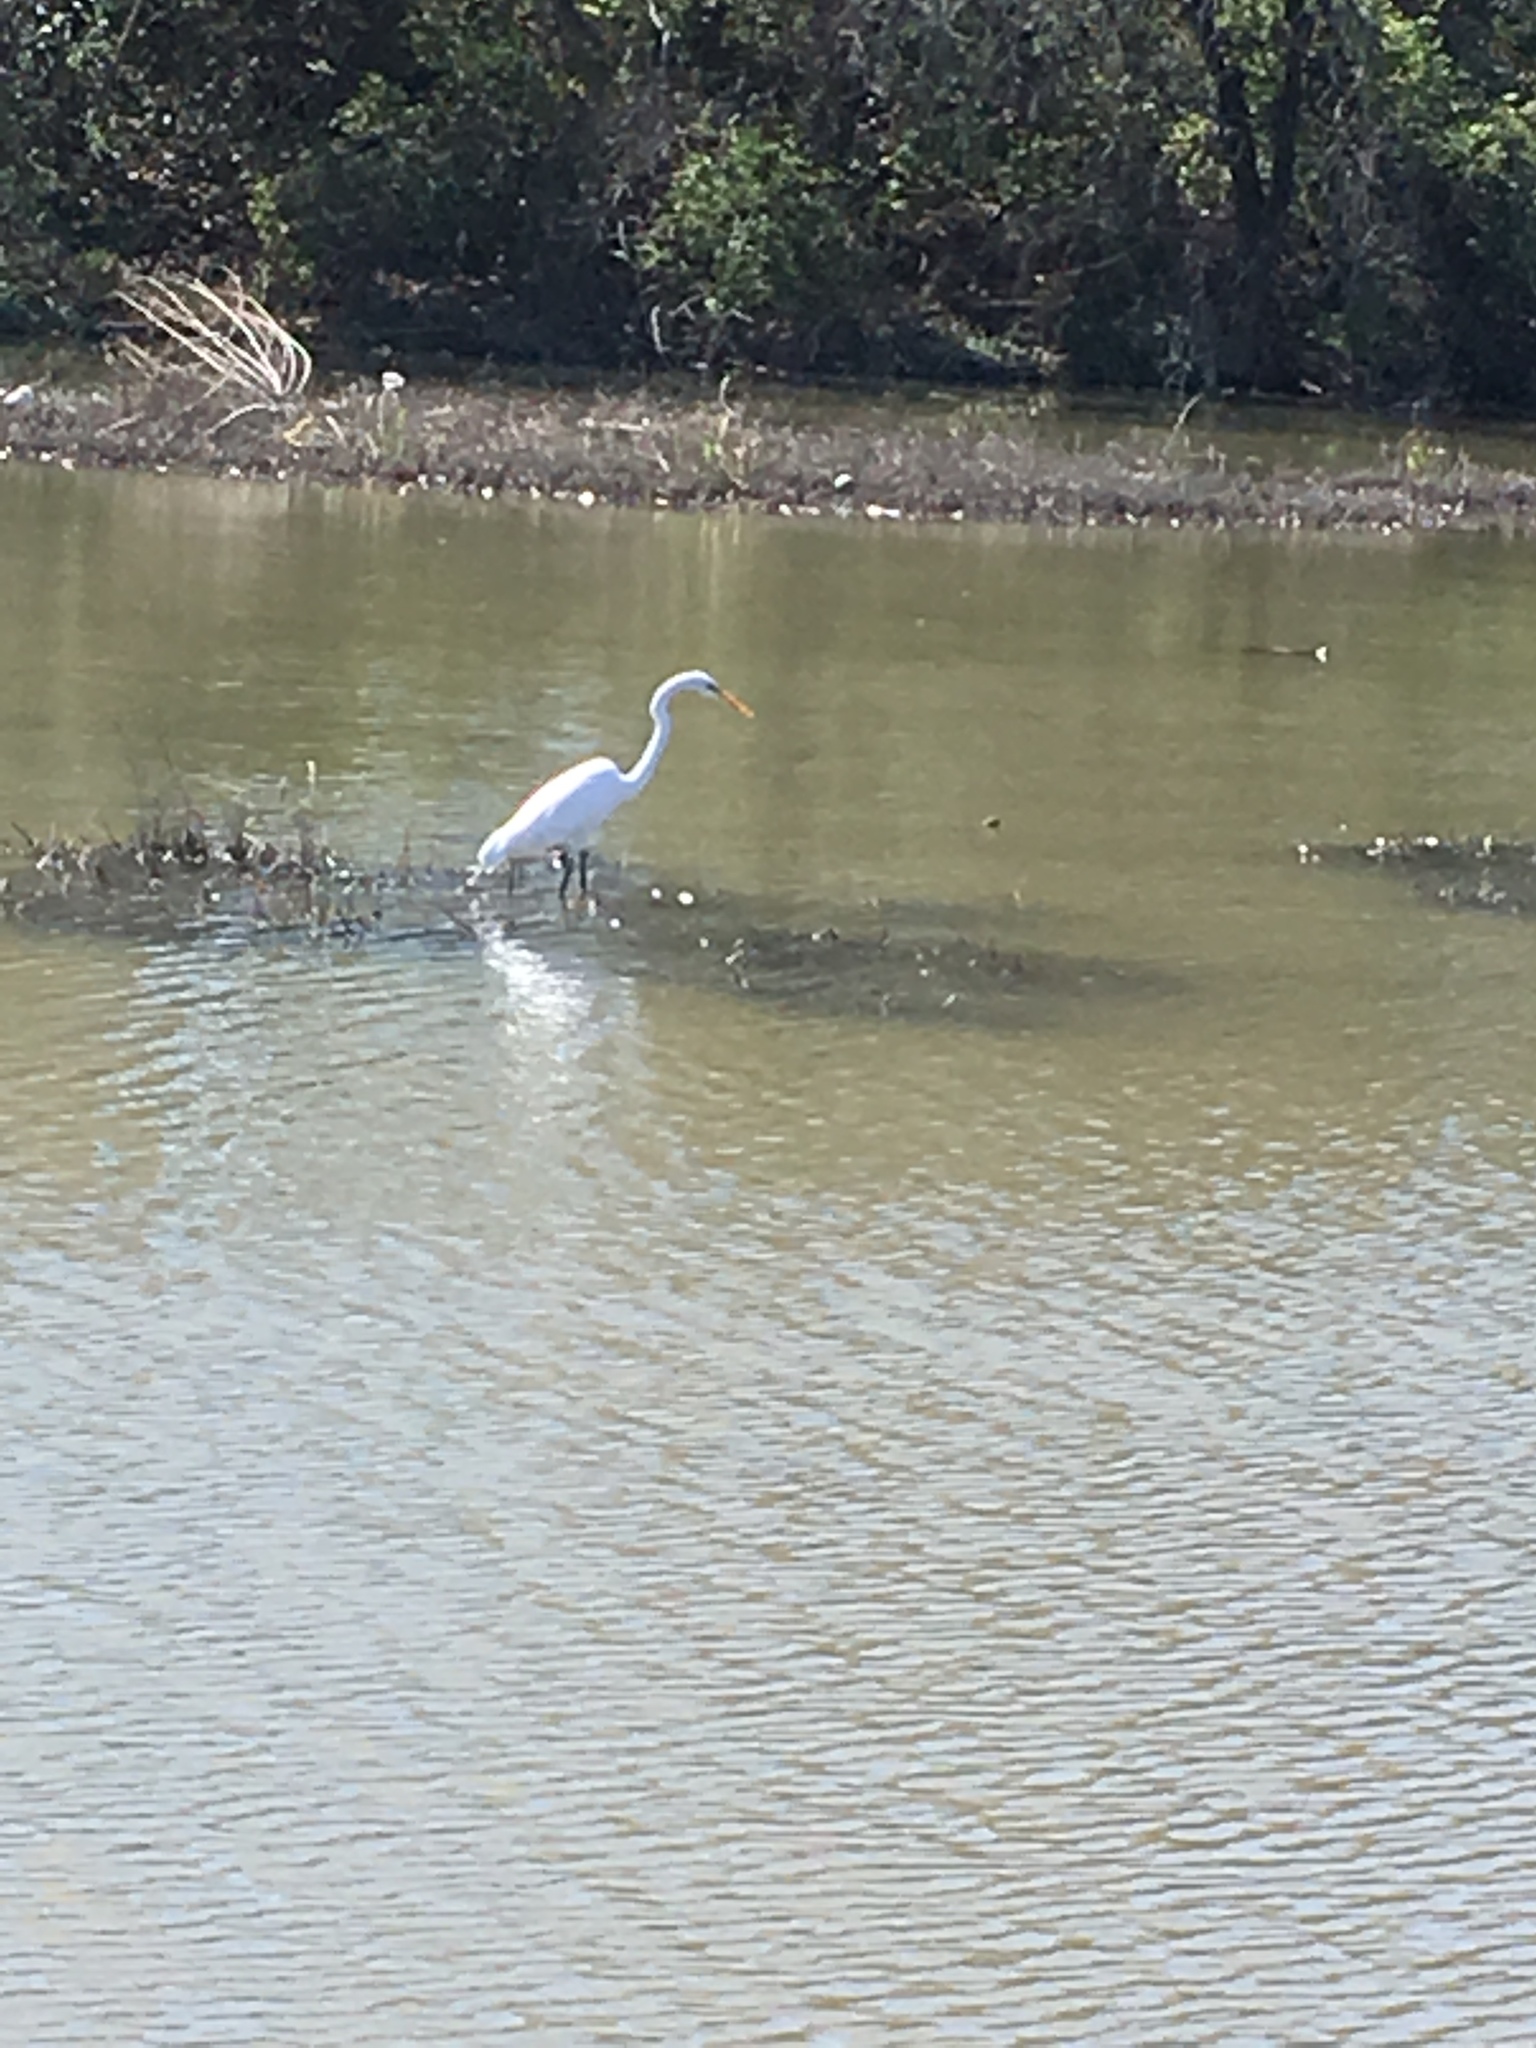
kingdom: Animalia
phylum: Chordata
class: Aves
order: Pelecaniformes
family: Ardeidae
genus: Ardea
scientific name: Ardea alba
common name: Great egret
